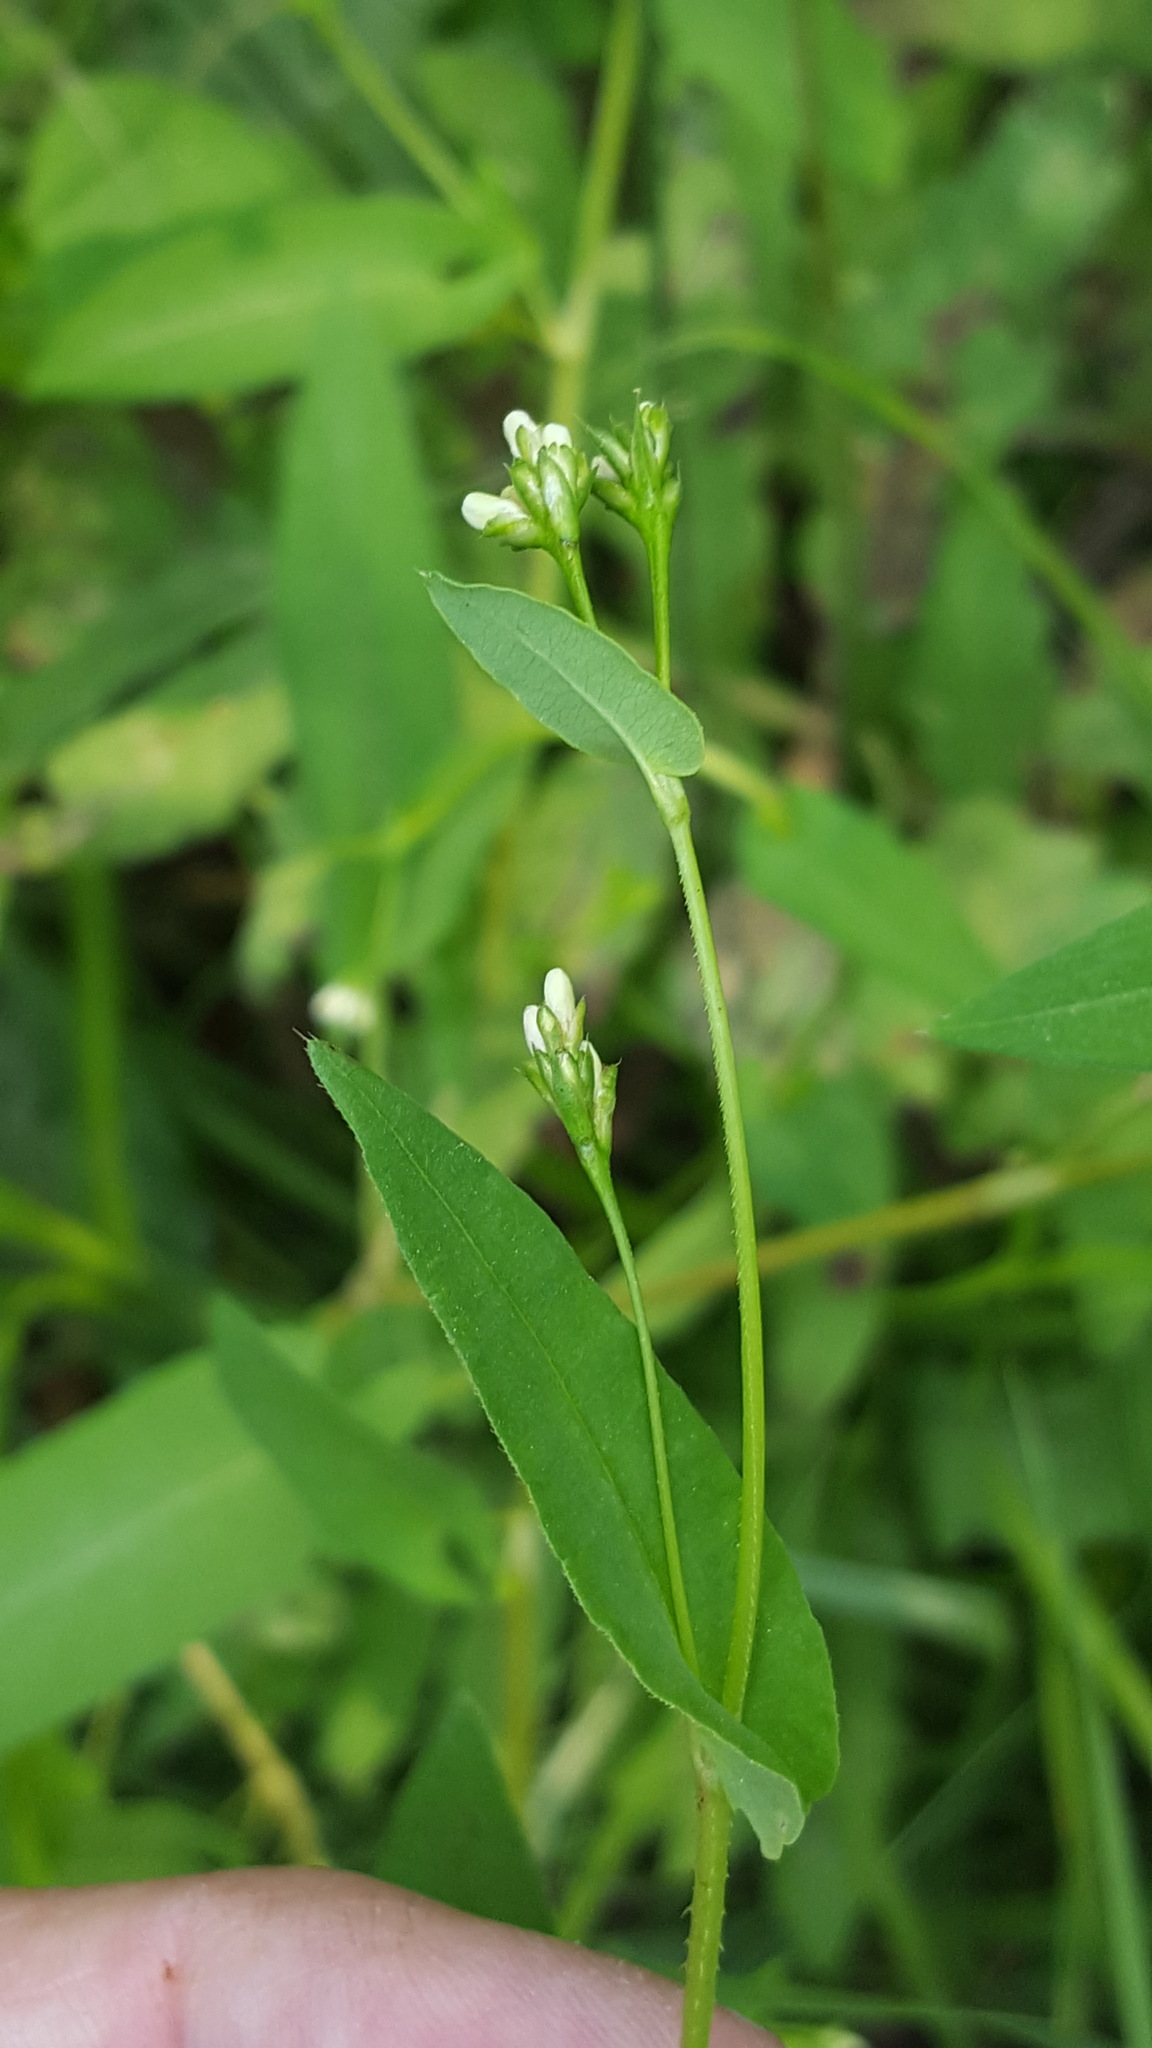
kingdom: Plantae
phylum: Tracheophyta
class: Magnoliopsida
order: Caryophyllales
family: Polygonaceae
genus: Persicaria
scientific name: Persicaria sagittata
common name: American tearthumb
